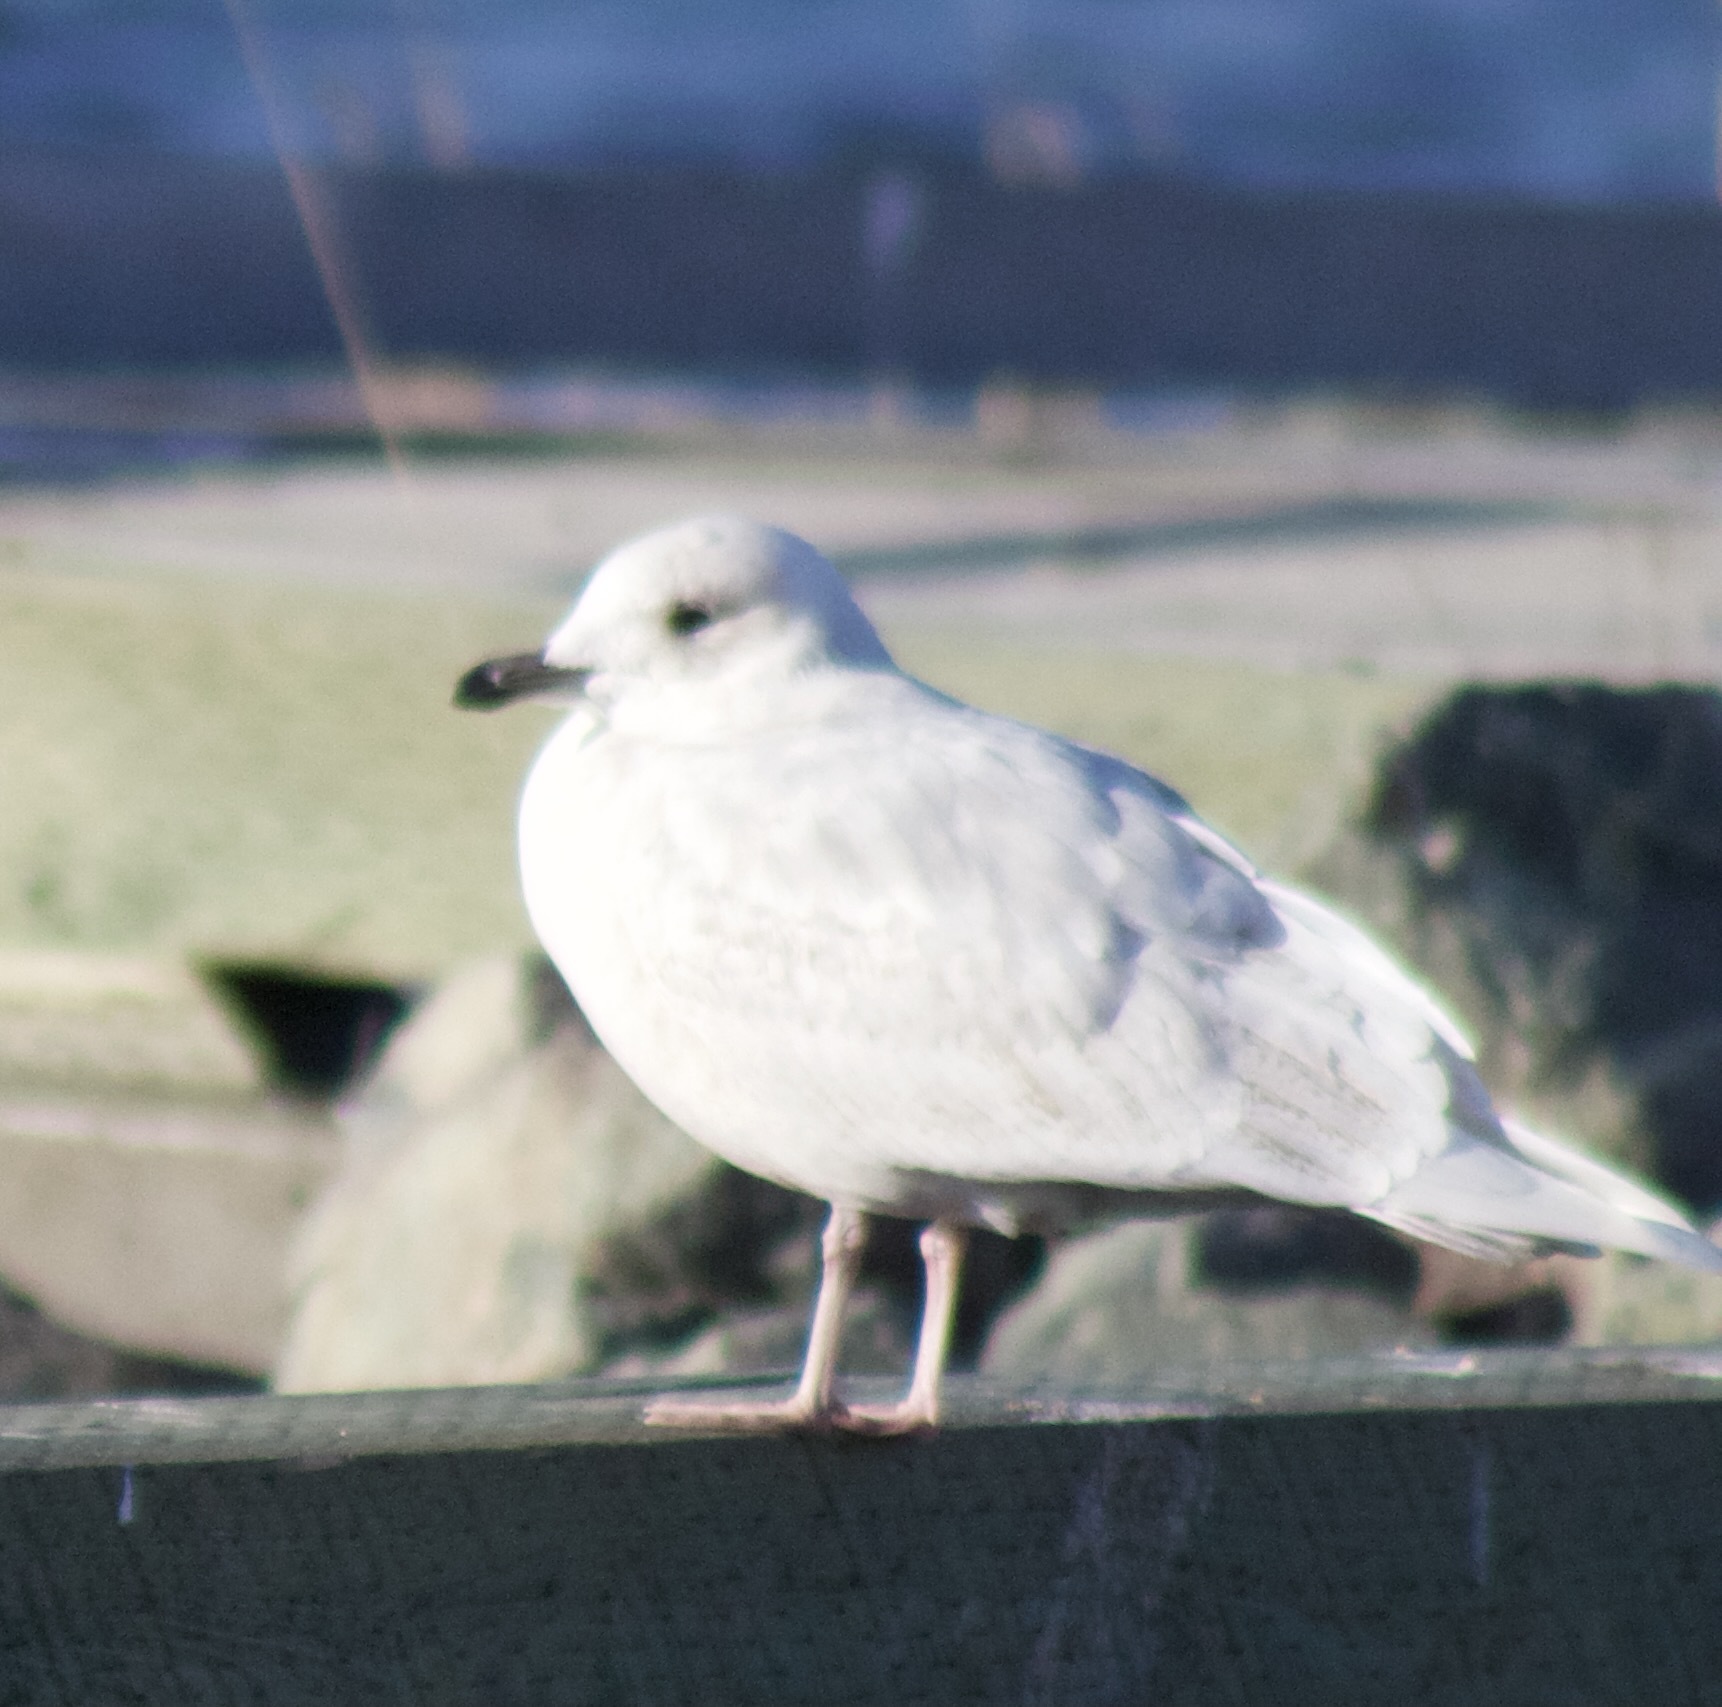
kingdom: Animalia
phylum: Chordata
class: Aves
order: Charadriiformes
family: Laridae
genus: Larus
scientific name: Larus glaucoides
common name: Iceland gull
